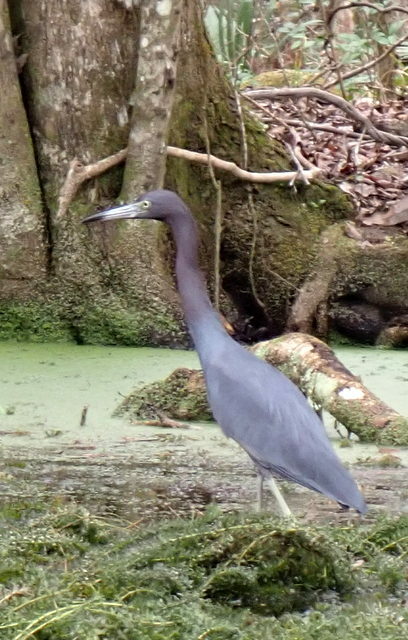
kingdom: Animalia
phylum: Chordata
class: Aves
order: Pelecaniformes
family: Ardeidae
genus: Egretta
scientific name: Egretta caerulea
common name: Little blue heron
